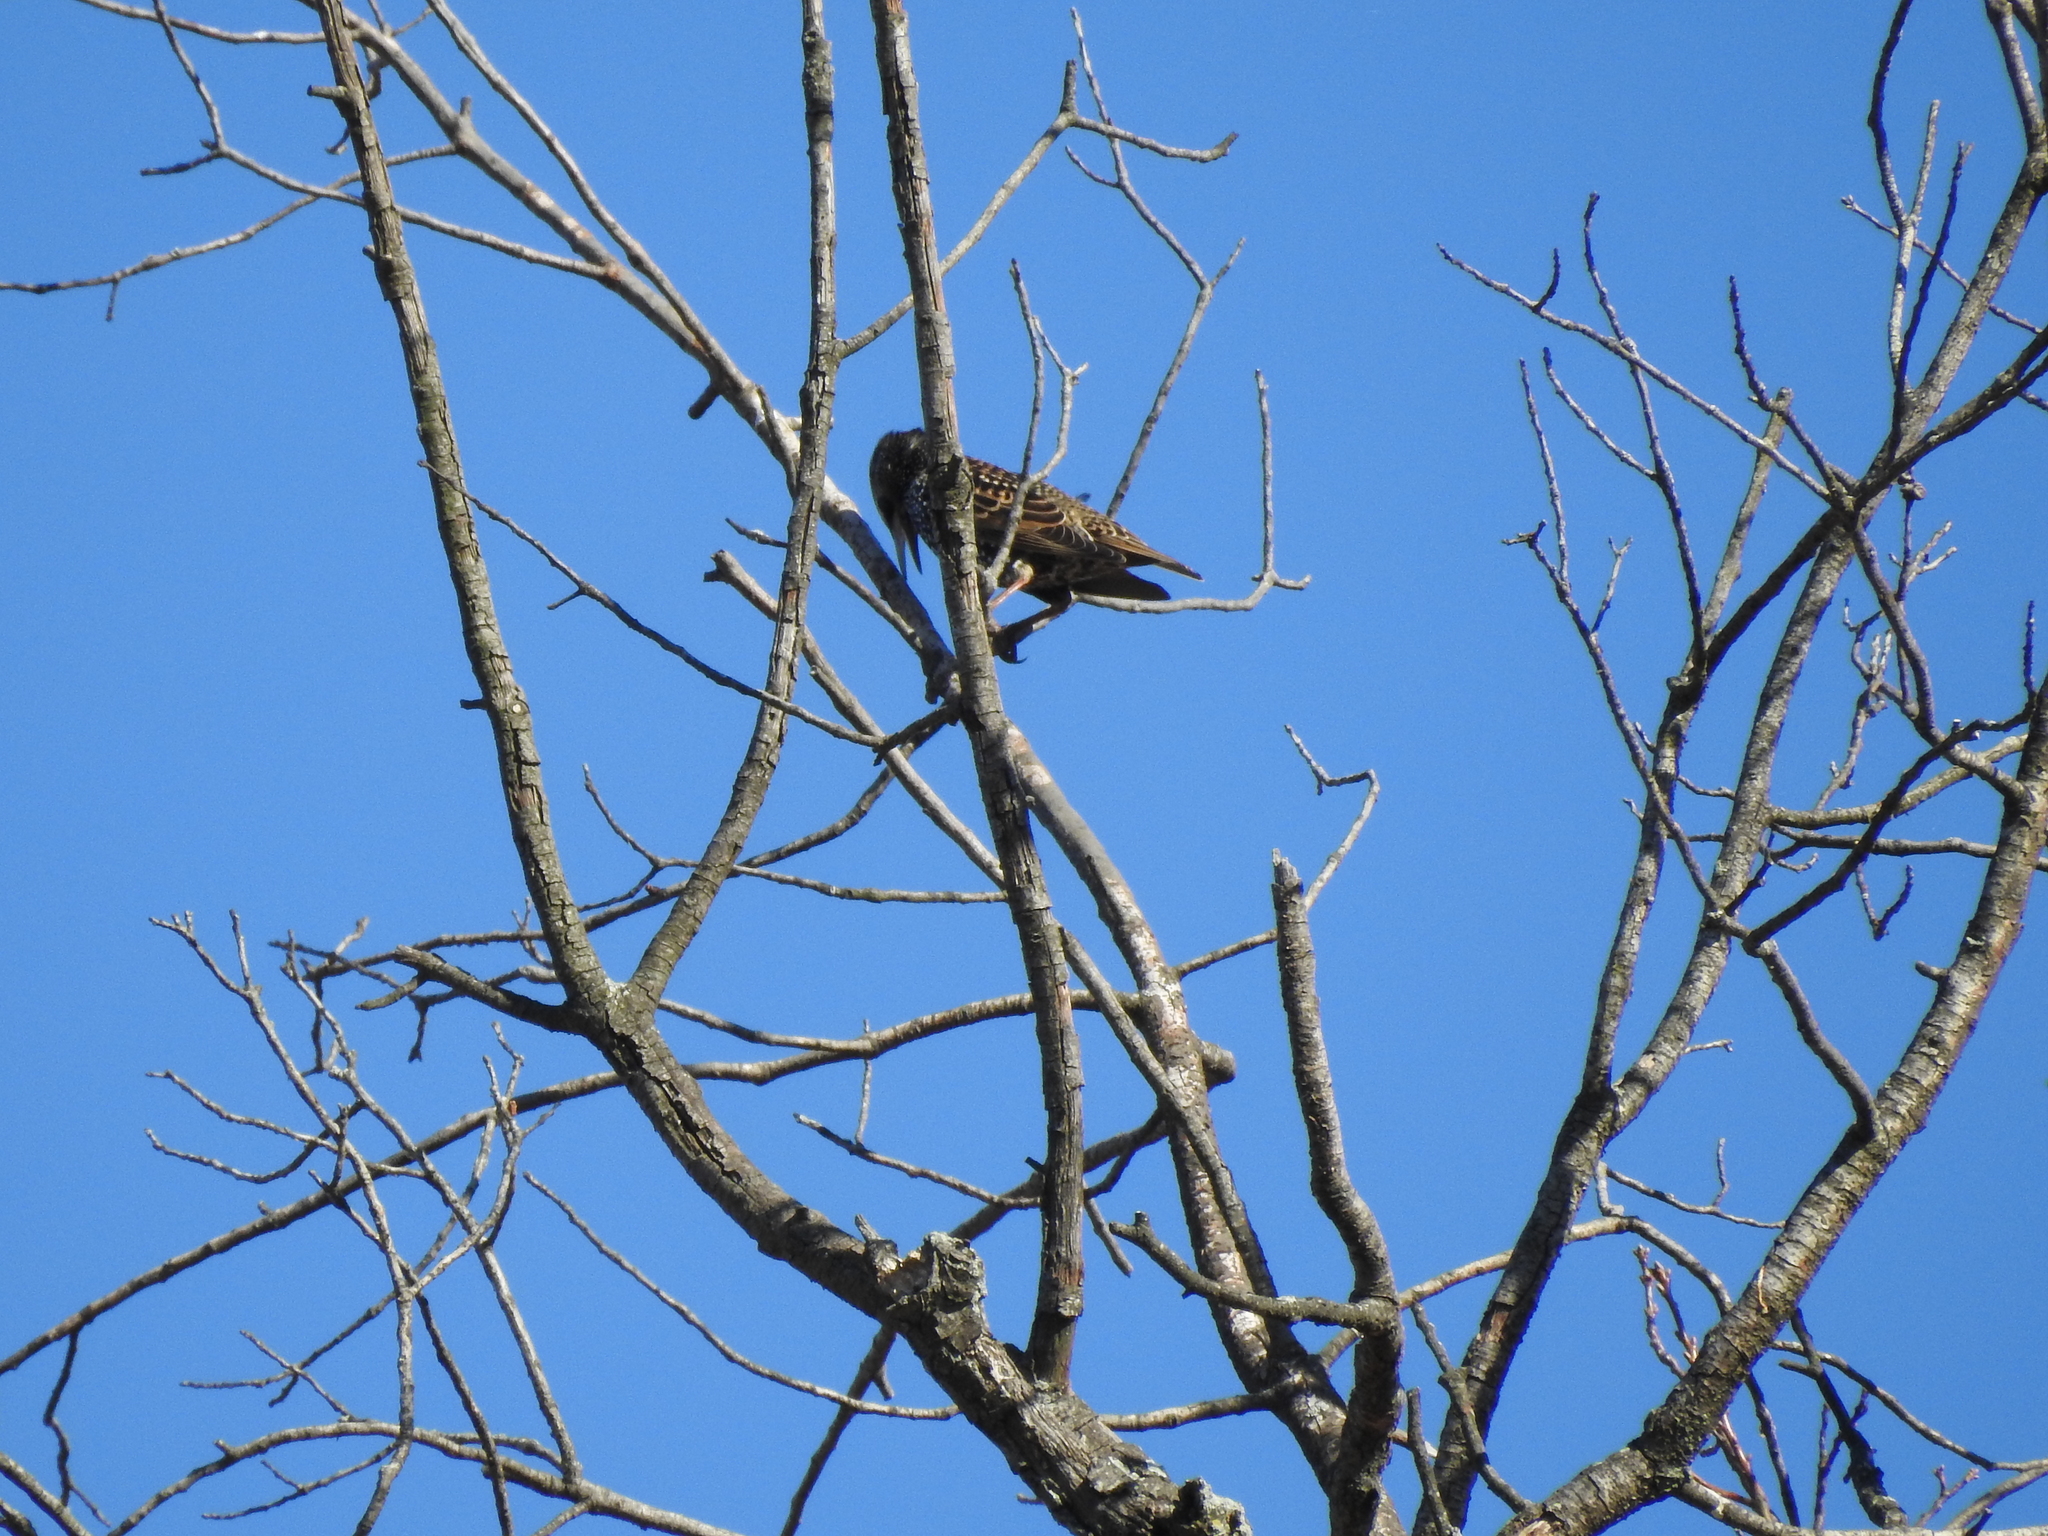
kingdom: Animalia
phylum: Chordata
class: Aves
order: Passeriformes
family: Sturnidae
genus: Sturnus
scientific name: Sturnus vulgaris
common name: Common starling
